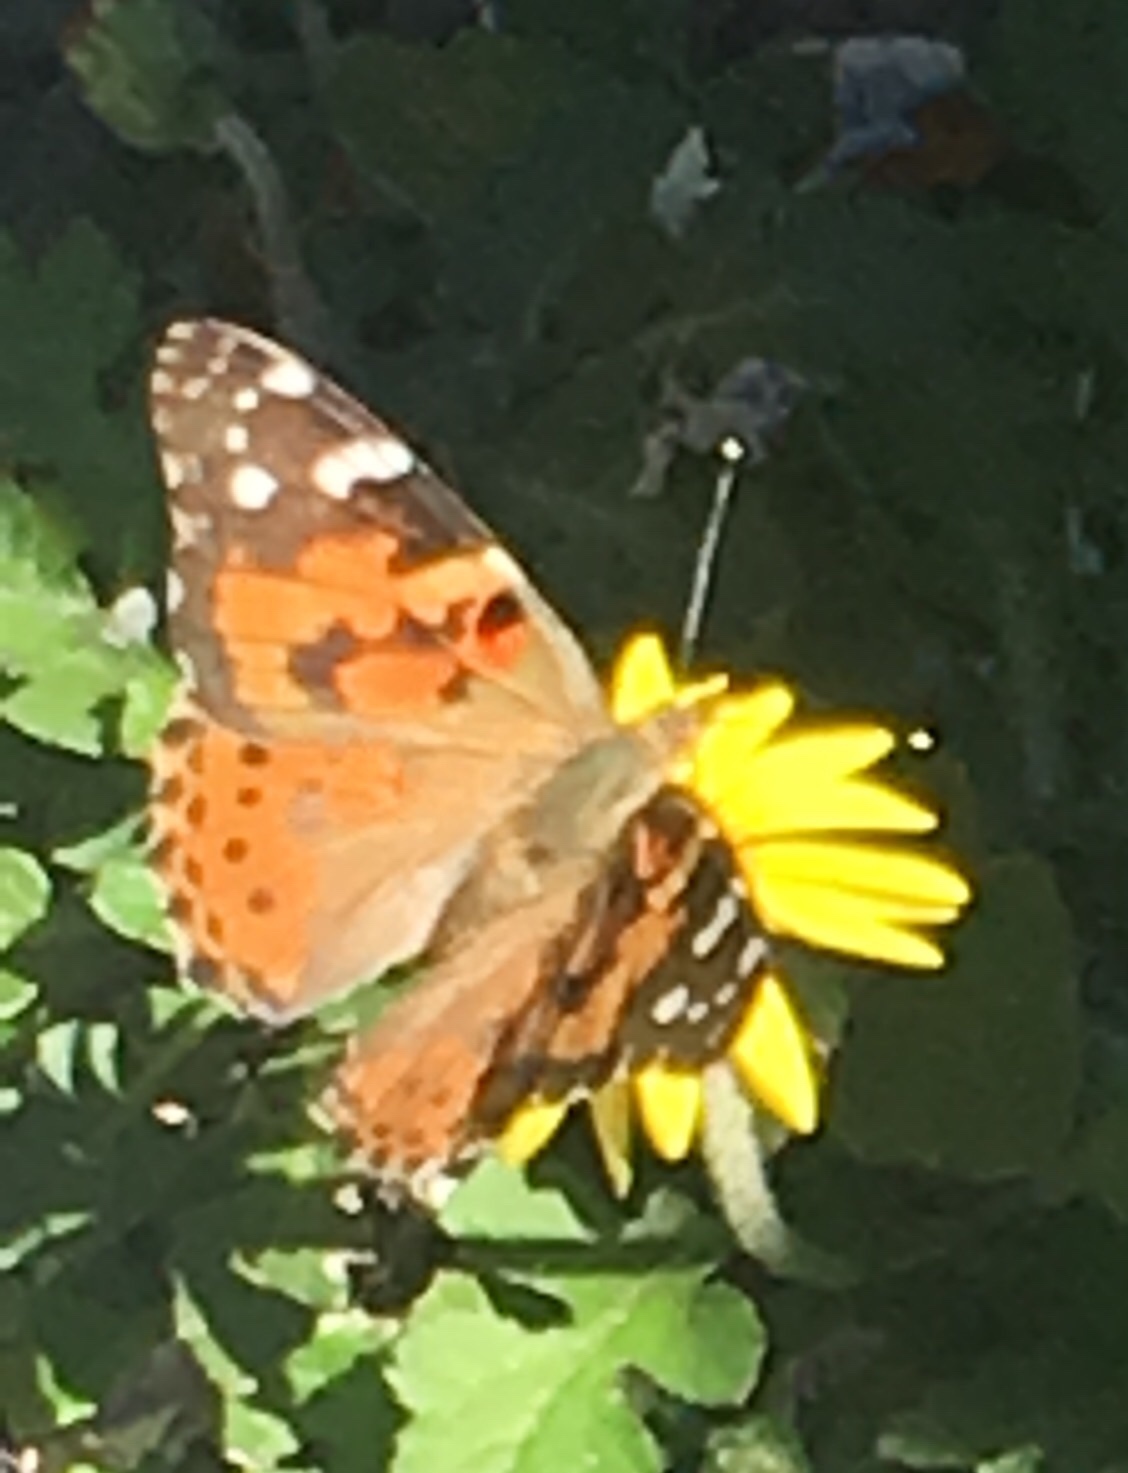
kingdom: Animalia
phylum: Arthropoda
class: Insecta
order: Lepidoptera
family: Nymphalidae
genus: Vanessa
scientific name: Vanessa cardui
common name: Painted lady
